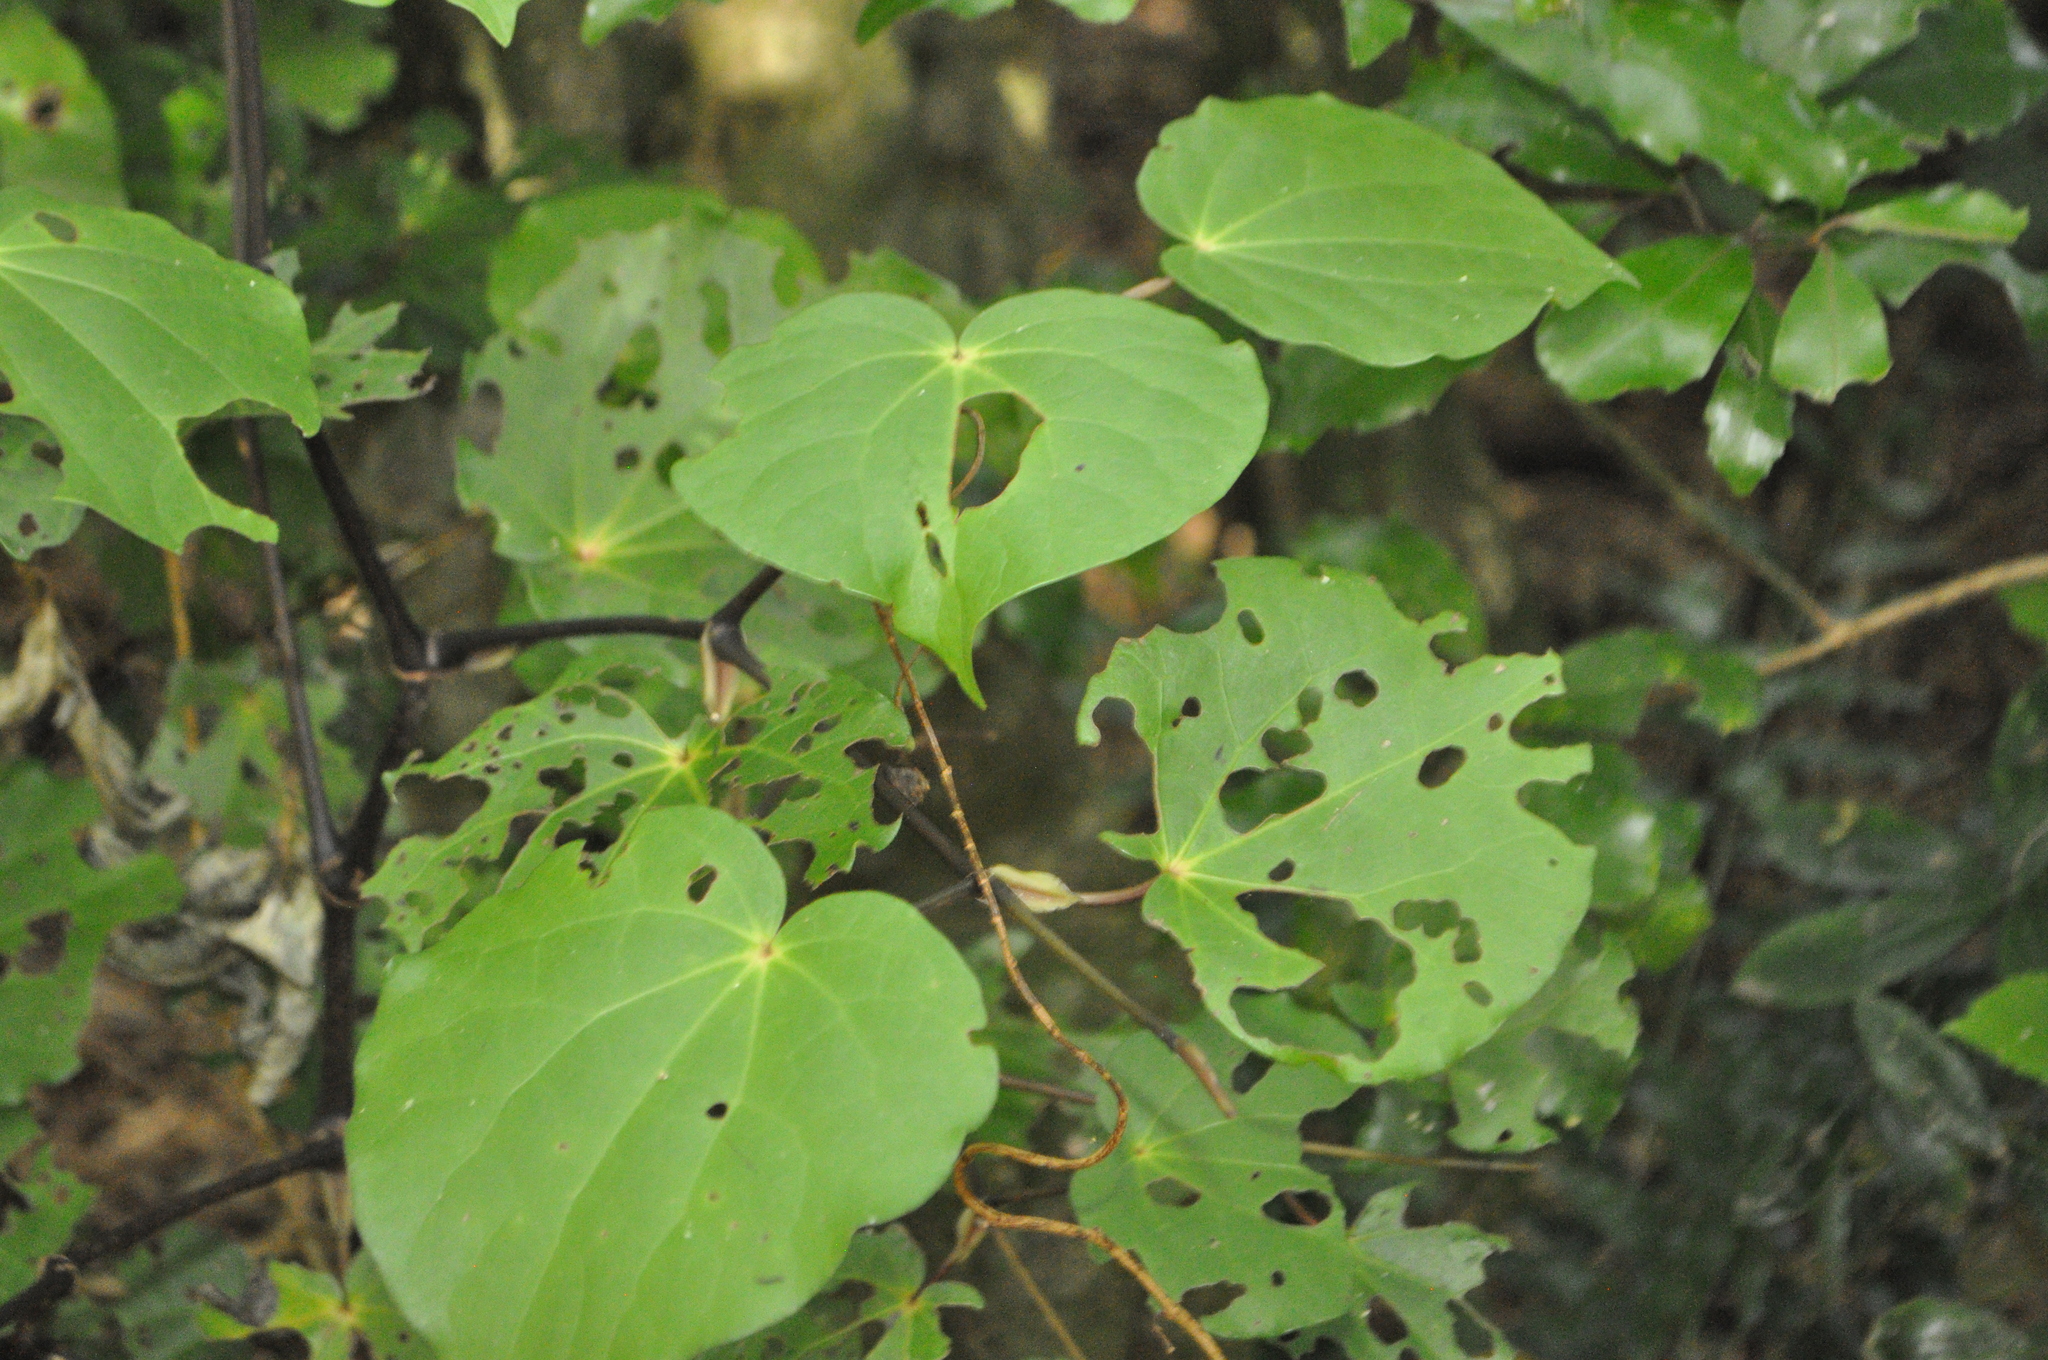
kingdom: Plantae
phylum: Tracheophyta
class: Magnoliopsida
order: Piperales
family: Piperaceae
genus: Macropiper
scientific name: Macropiper excelsum
